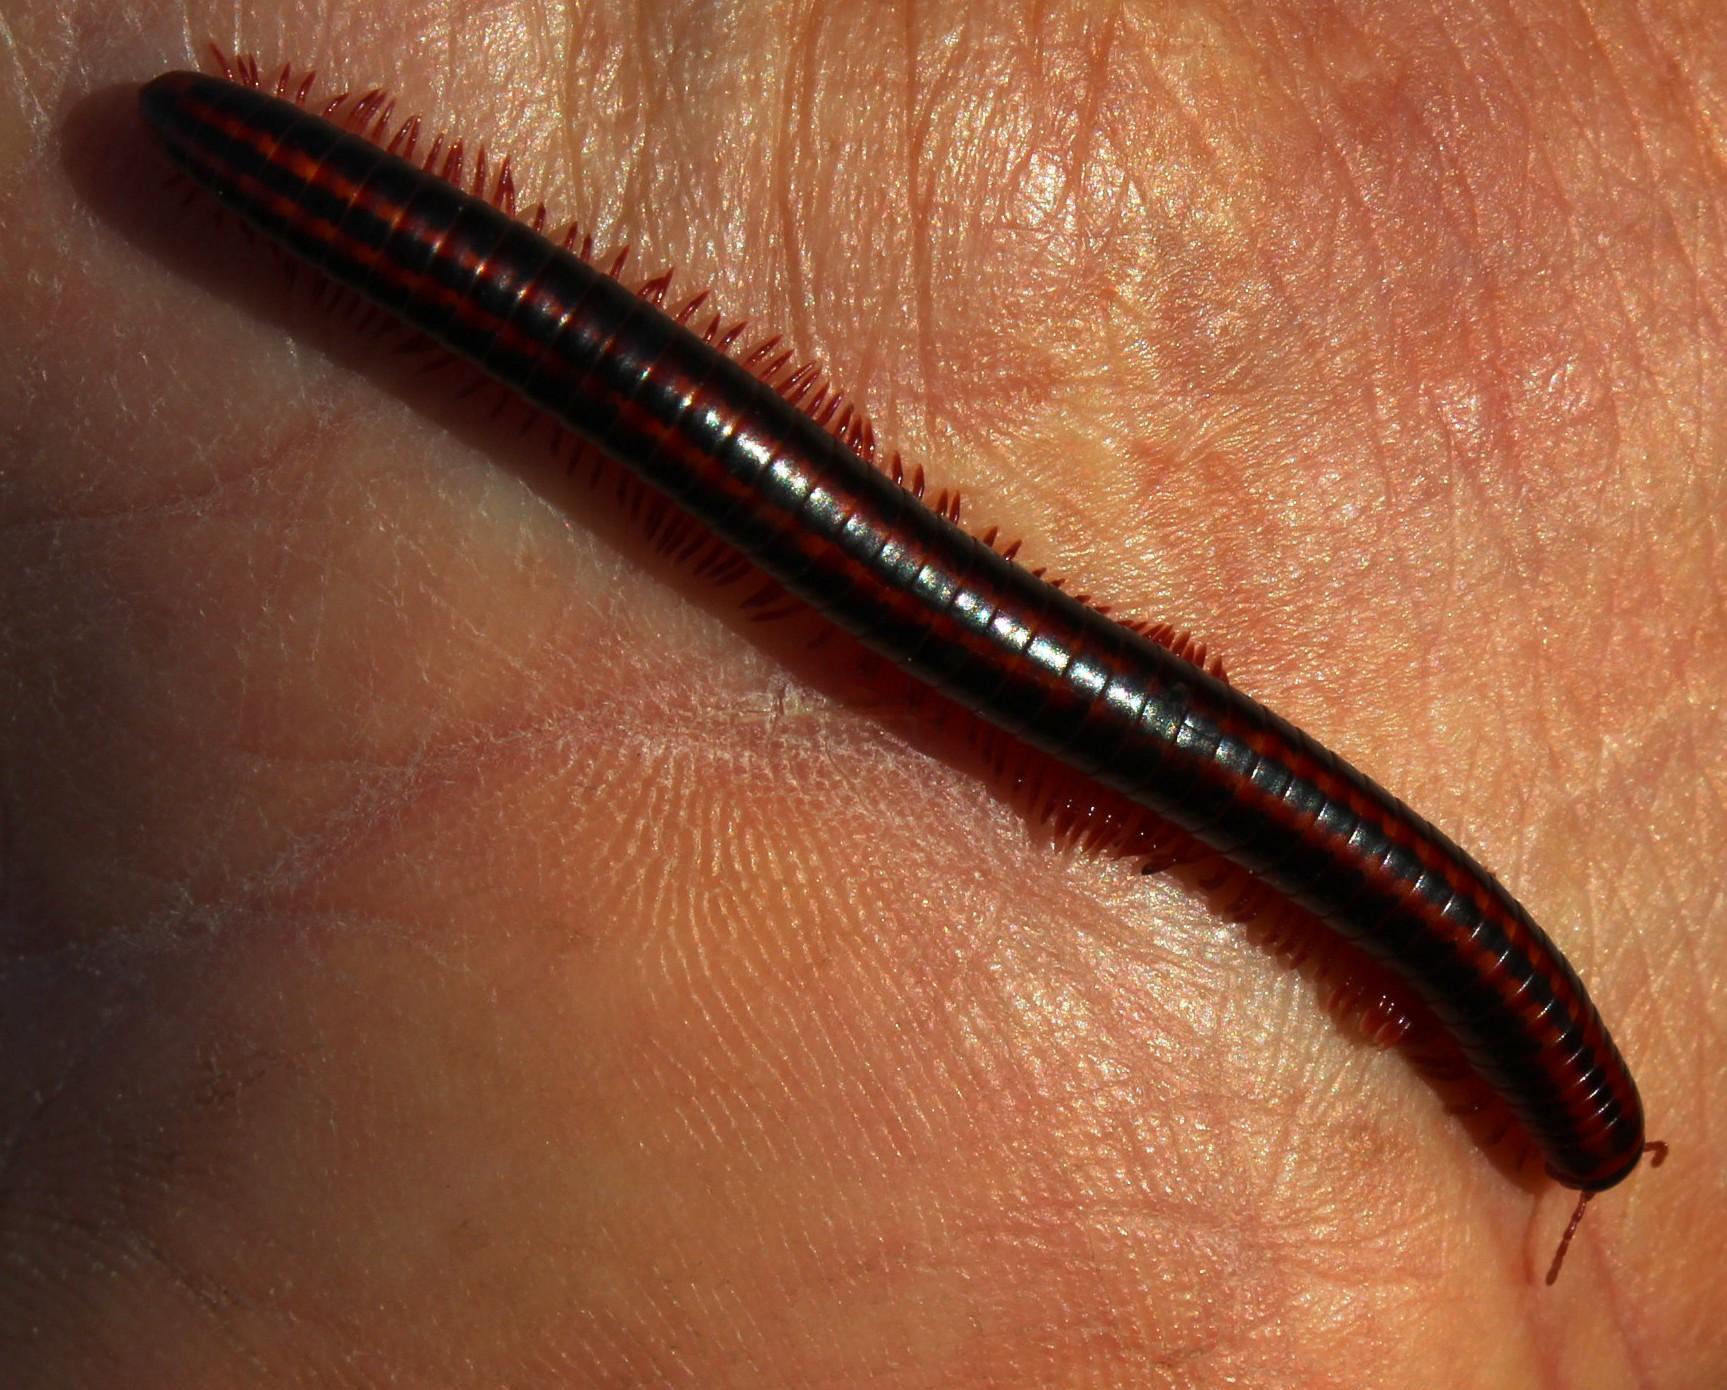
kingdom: Animalia
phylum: Arthropoda
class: Diplopoda
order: Spirobolida
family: Pachybolidae
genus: Centrobolus
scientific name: Centrobolus digrammus
